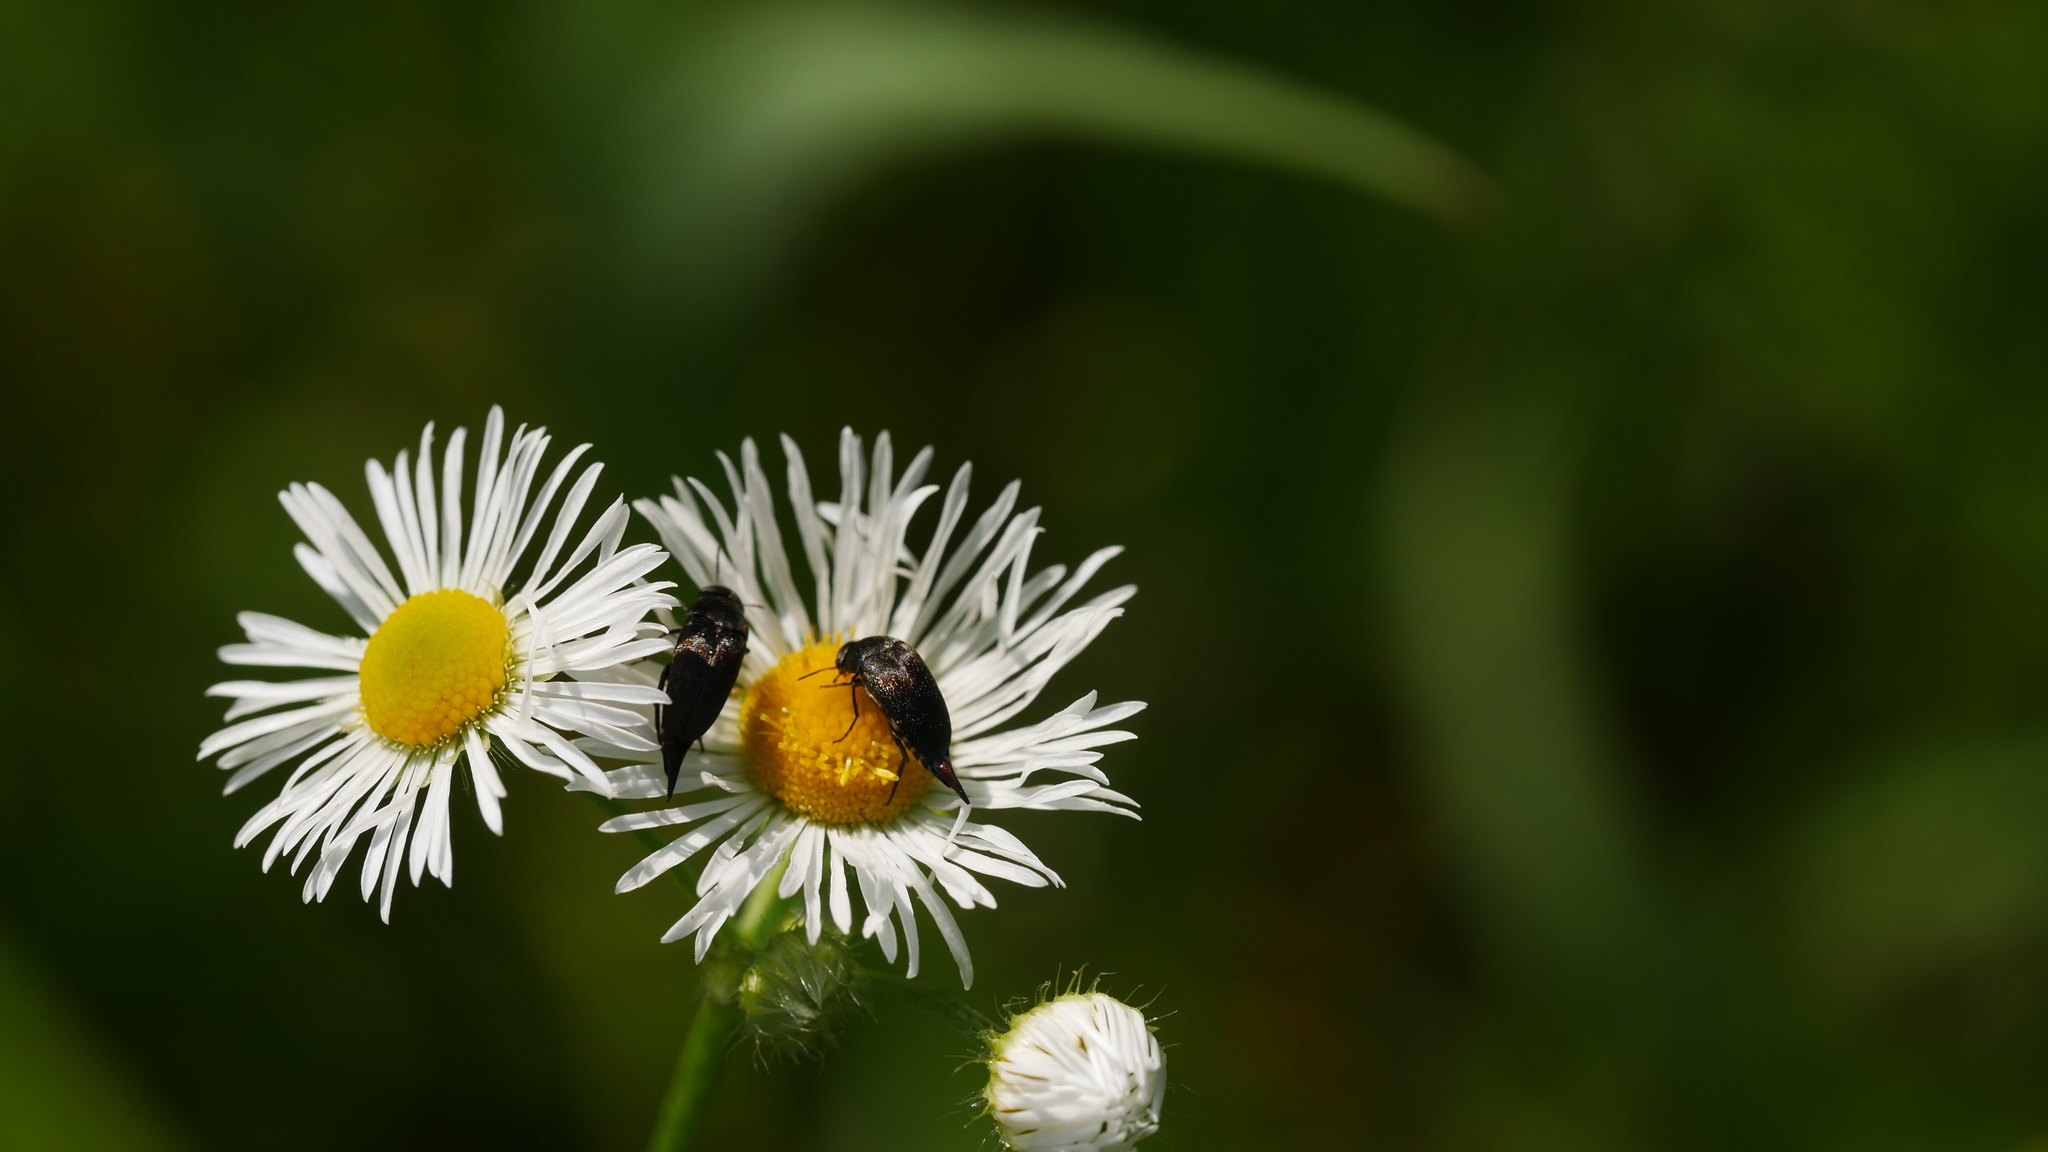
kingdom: Animalia
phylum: Arthropoda
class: Insecta
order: Coleoptera
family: Mordellidae
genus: Mordella
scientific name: Mordella
